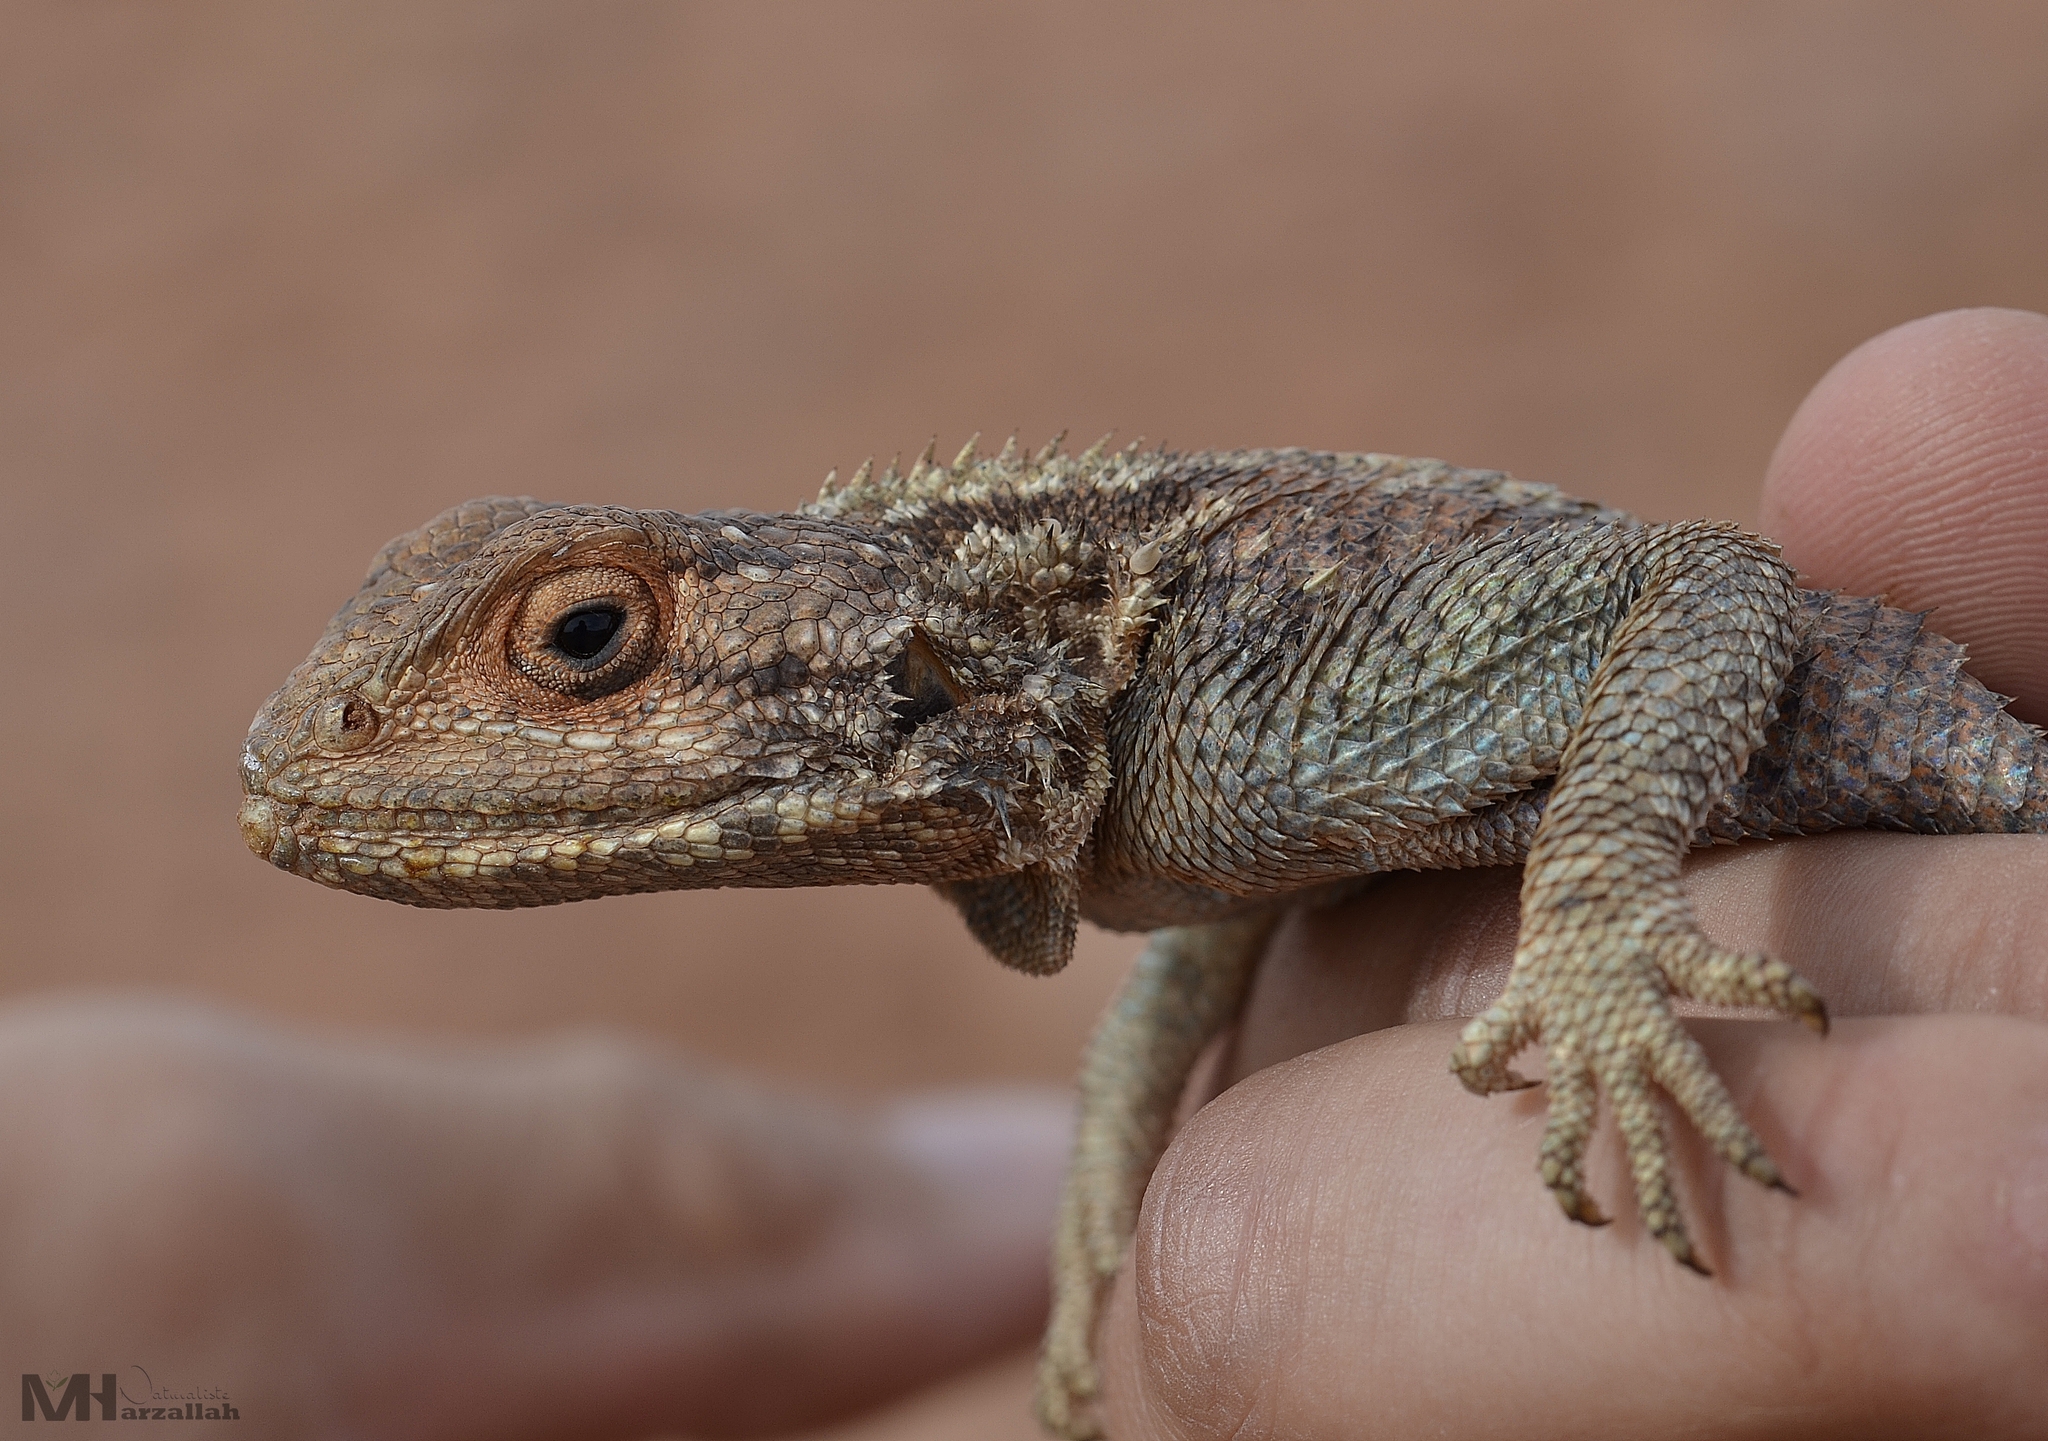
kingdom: Animalia
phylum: Chordata
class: Squamata
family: Agamidae
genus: Agama
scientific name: Agama impalearis
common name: Bibron's agama
